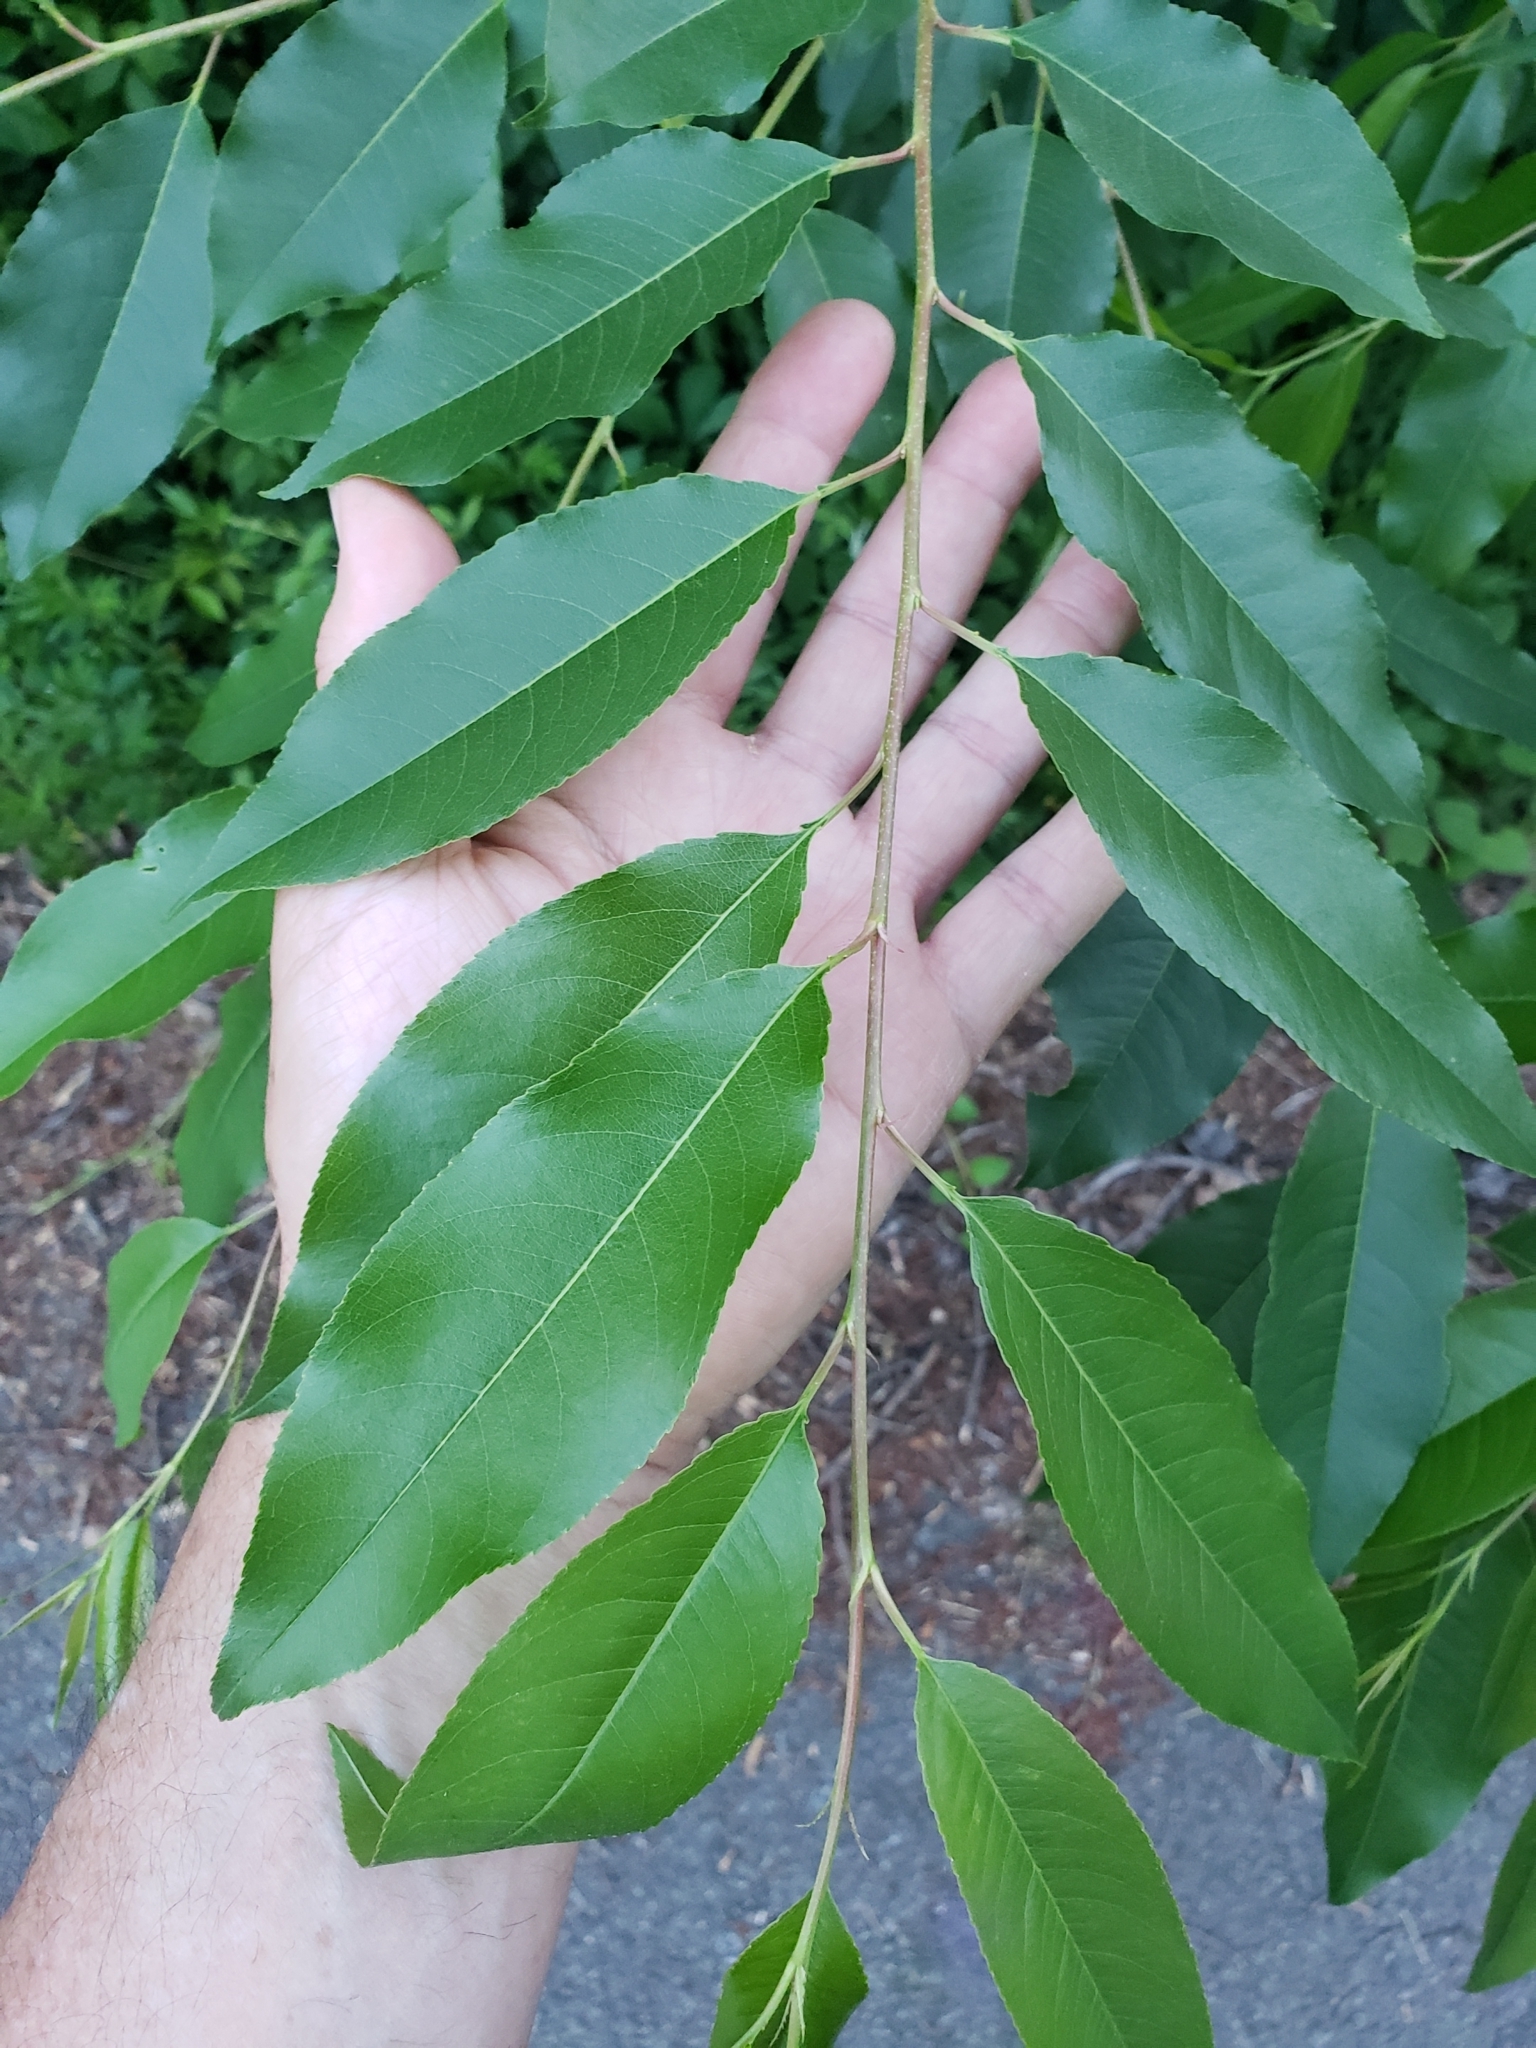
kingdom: Animalia
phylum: Arthropoda
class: Arachnida
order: Trombidiformes
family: Eriophyidae
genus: Eriophyes
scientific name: Eriophyes
